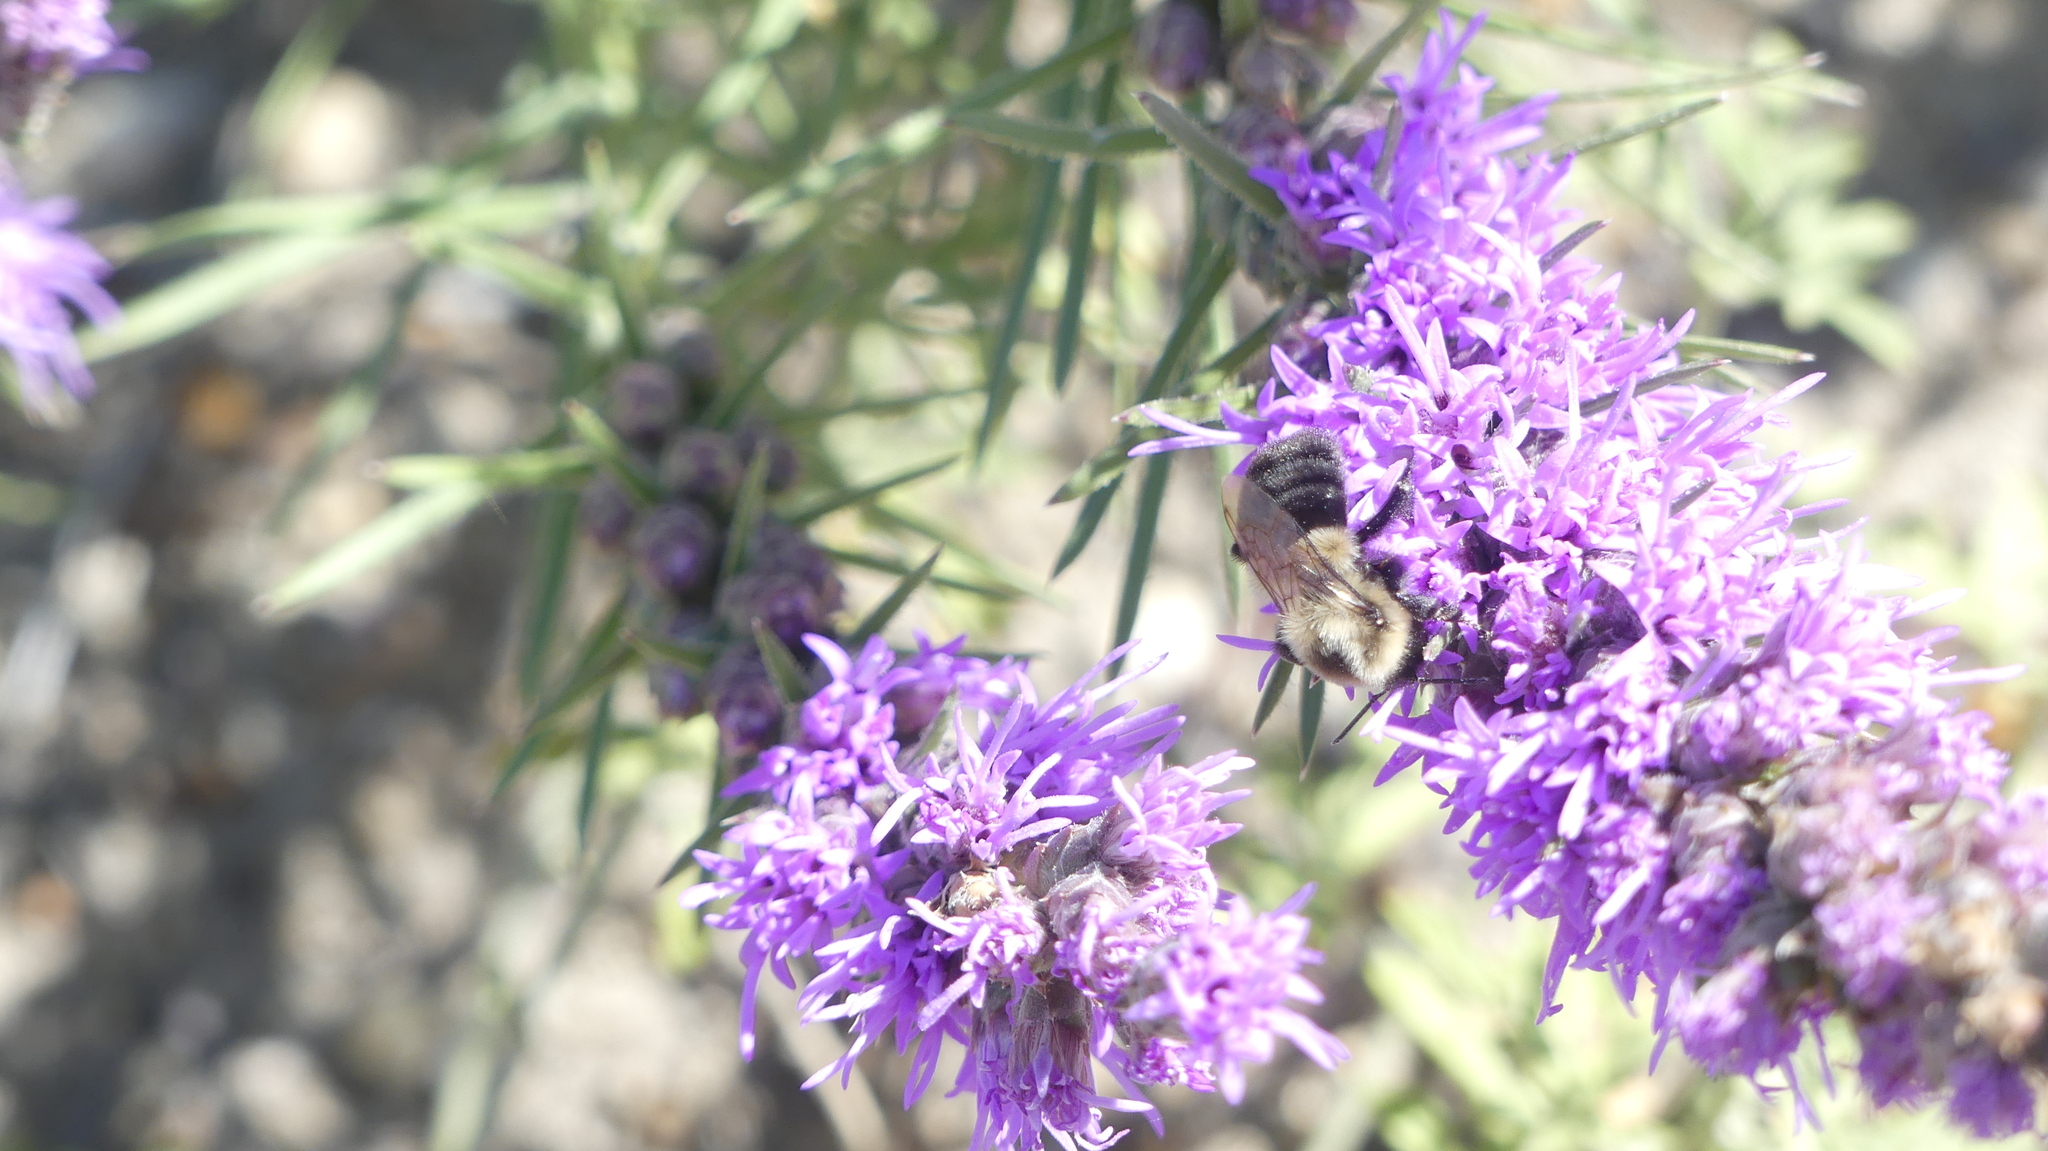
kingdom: Animalia
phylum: Arthropoda
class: Insecta
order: Hymenoptera
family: Apidae
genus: Bombus
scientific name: Bombus impatiens
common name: Common eastern bumble bee
